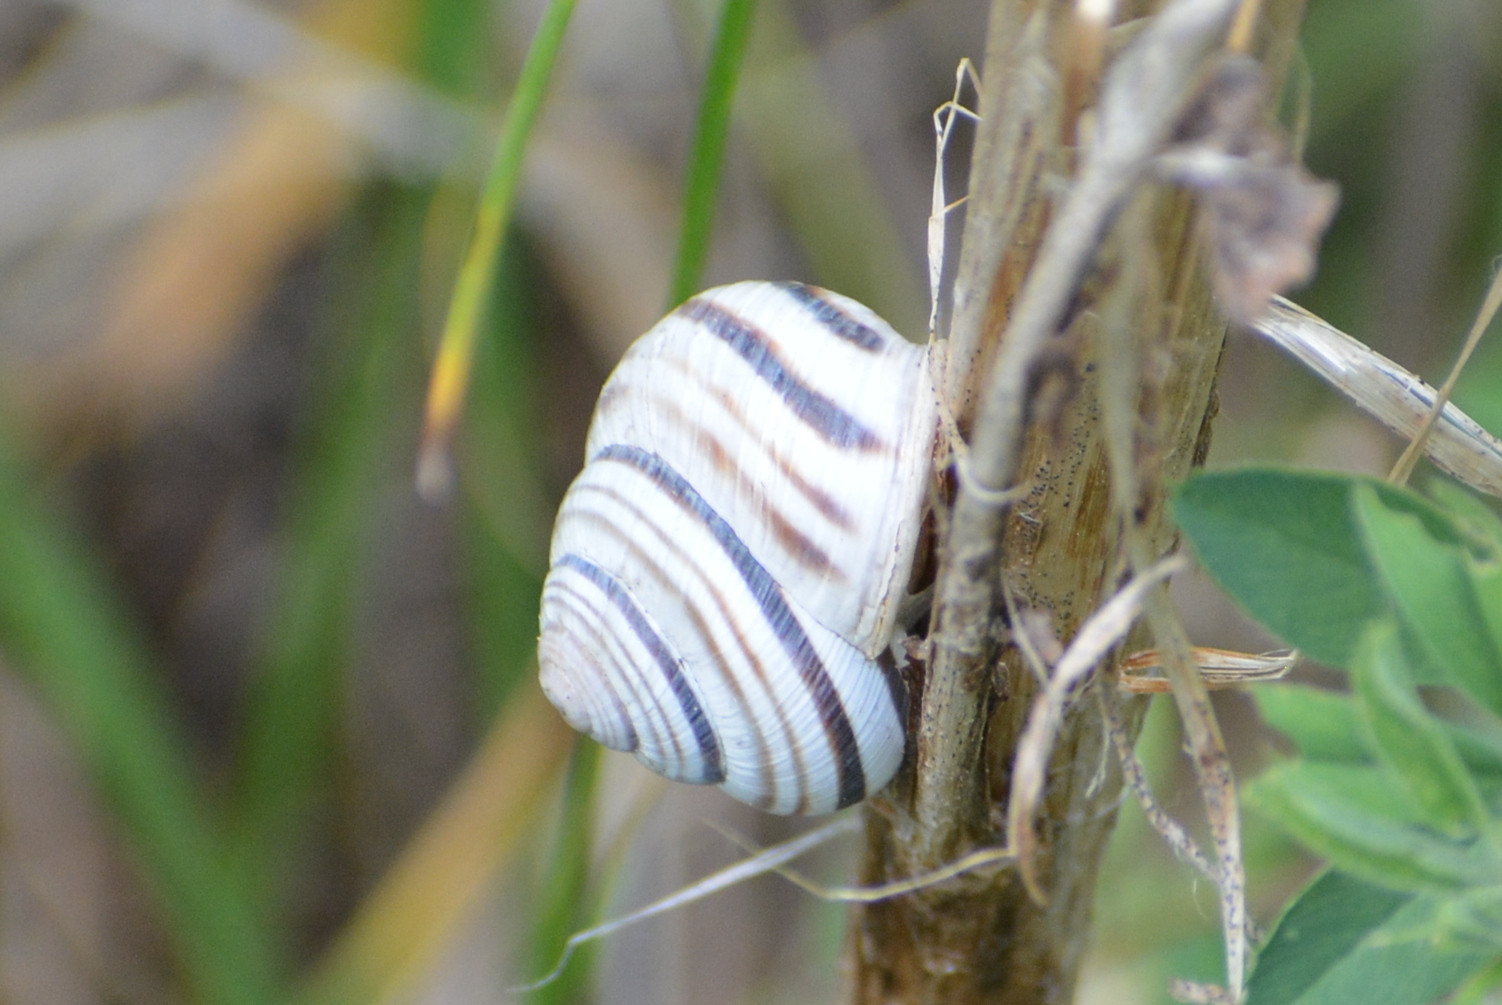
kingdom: Animalia
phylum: Mollusca
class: Gastropoda
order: Stylommatophora
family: Helicidae
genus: Caucasotachea
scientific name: Caucasotachea vindobonensis
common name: European helicid land snail
